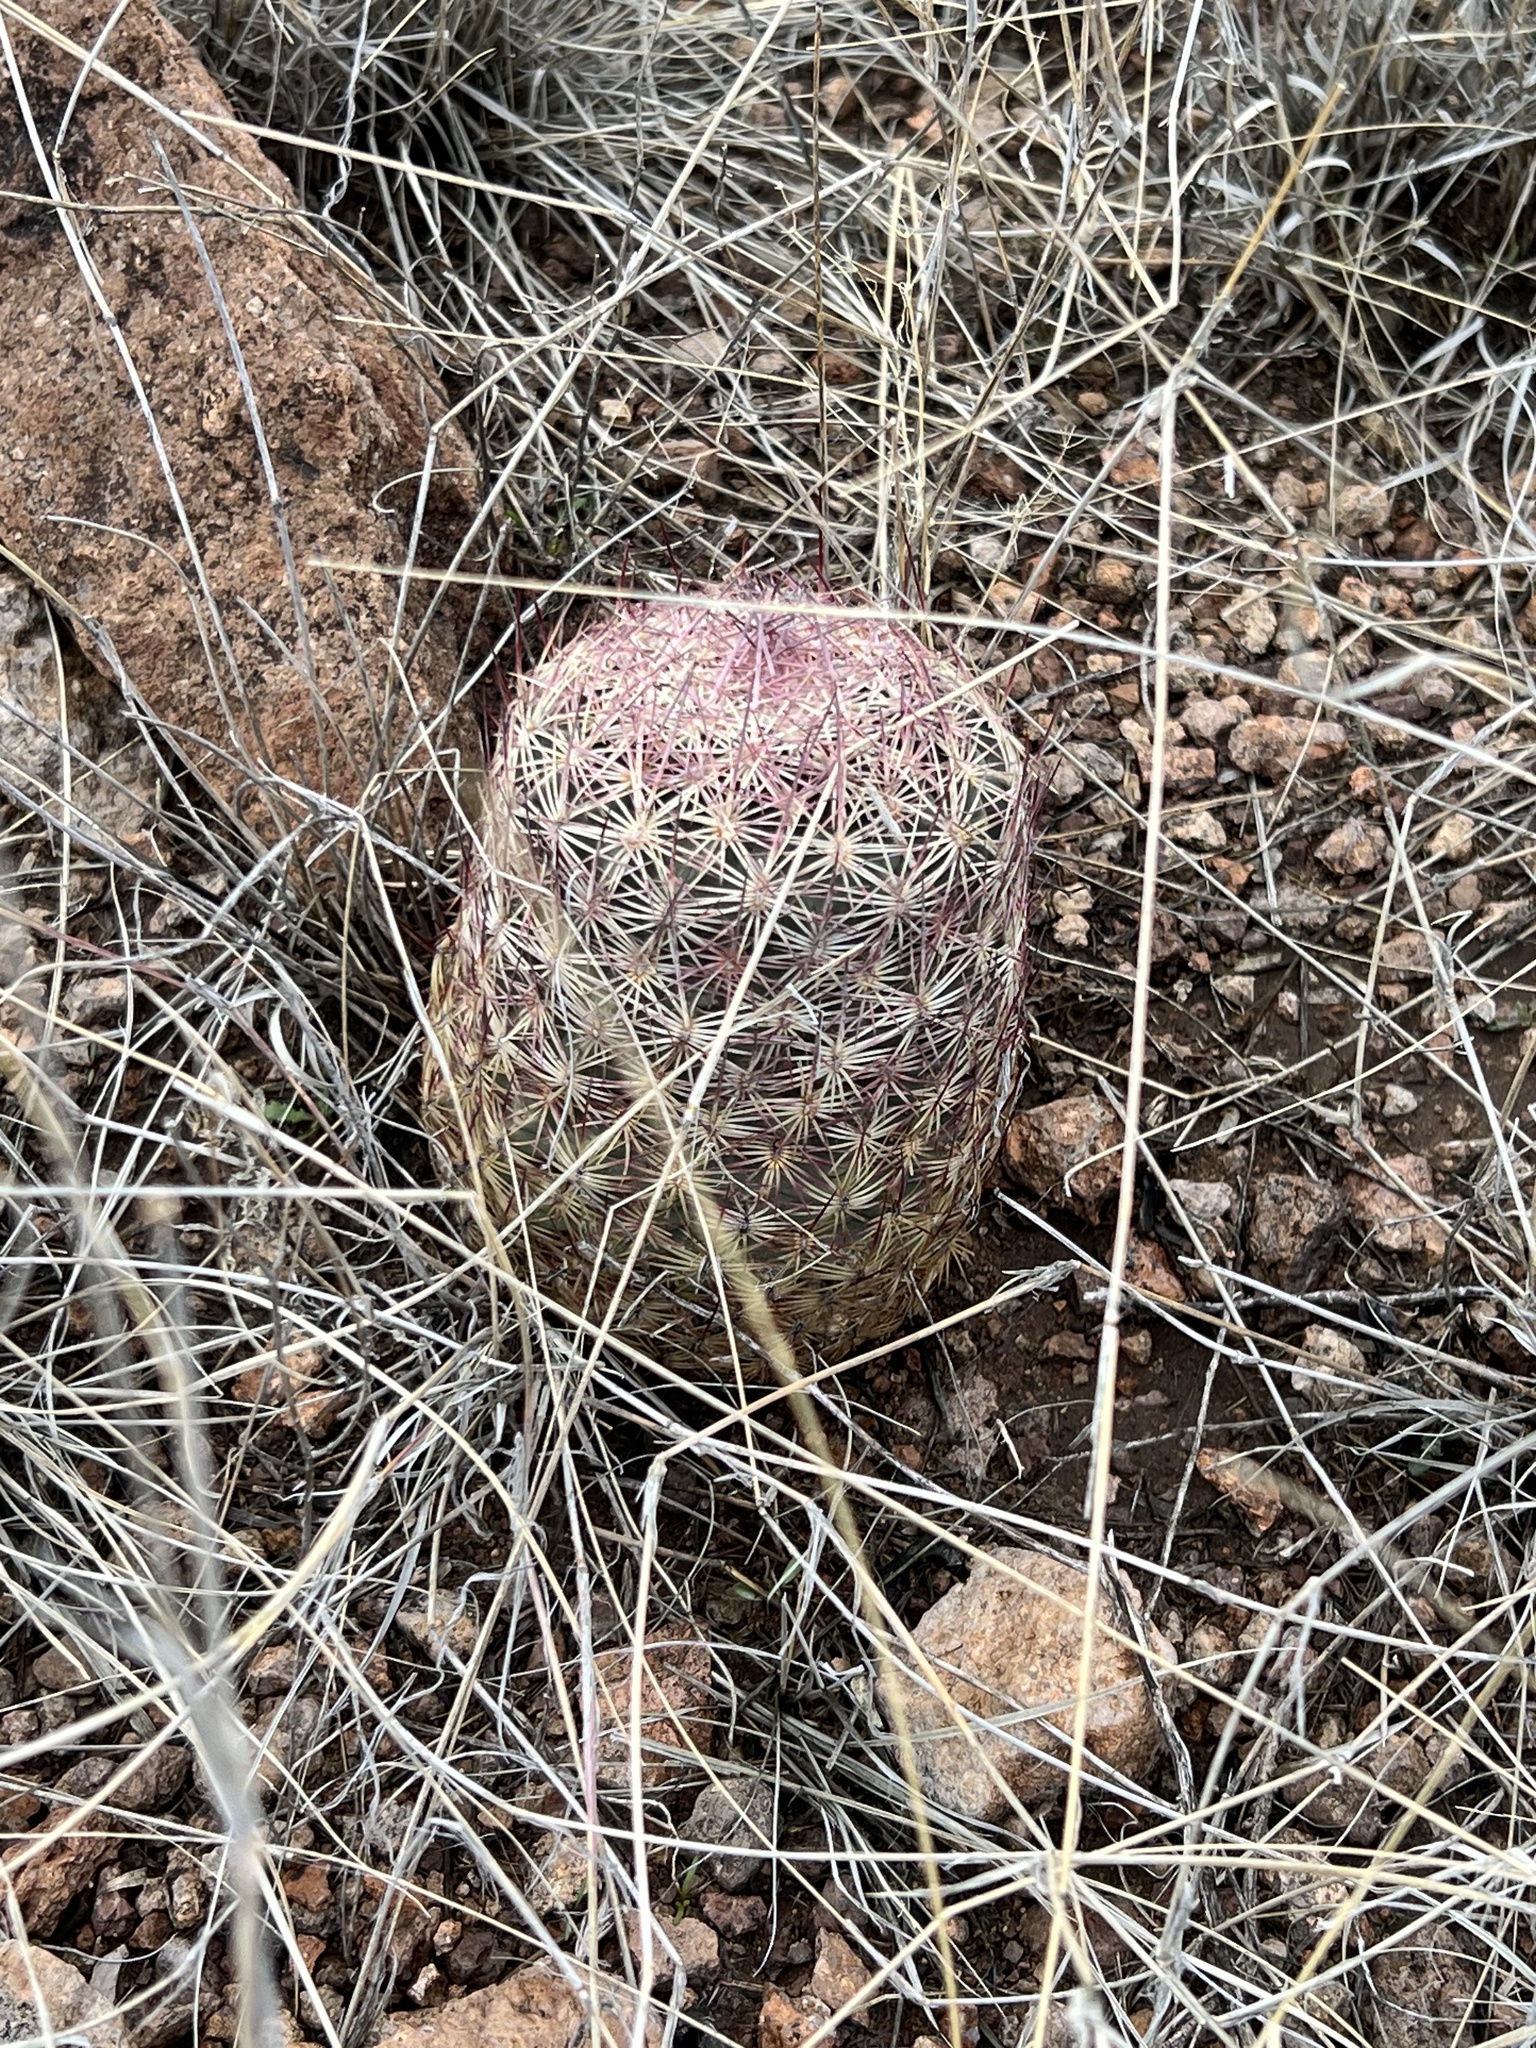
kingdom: Plantae
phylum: Tracheophyta
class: Magnoliopsida
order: Caryophyllales
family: Cactaceae
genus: Sclerocactus
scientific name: Sclerocactus johnsonii
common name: Eight-spine fishhook cactus
